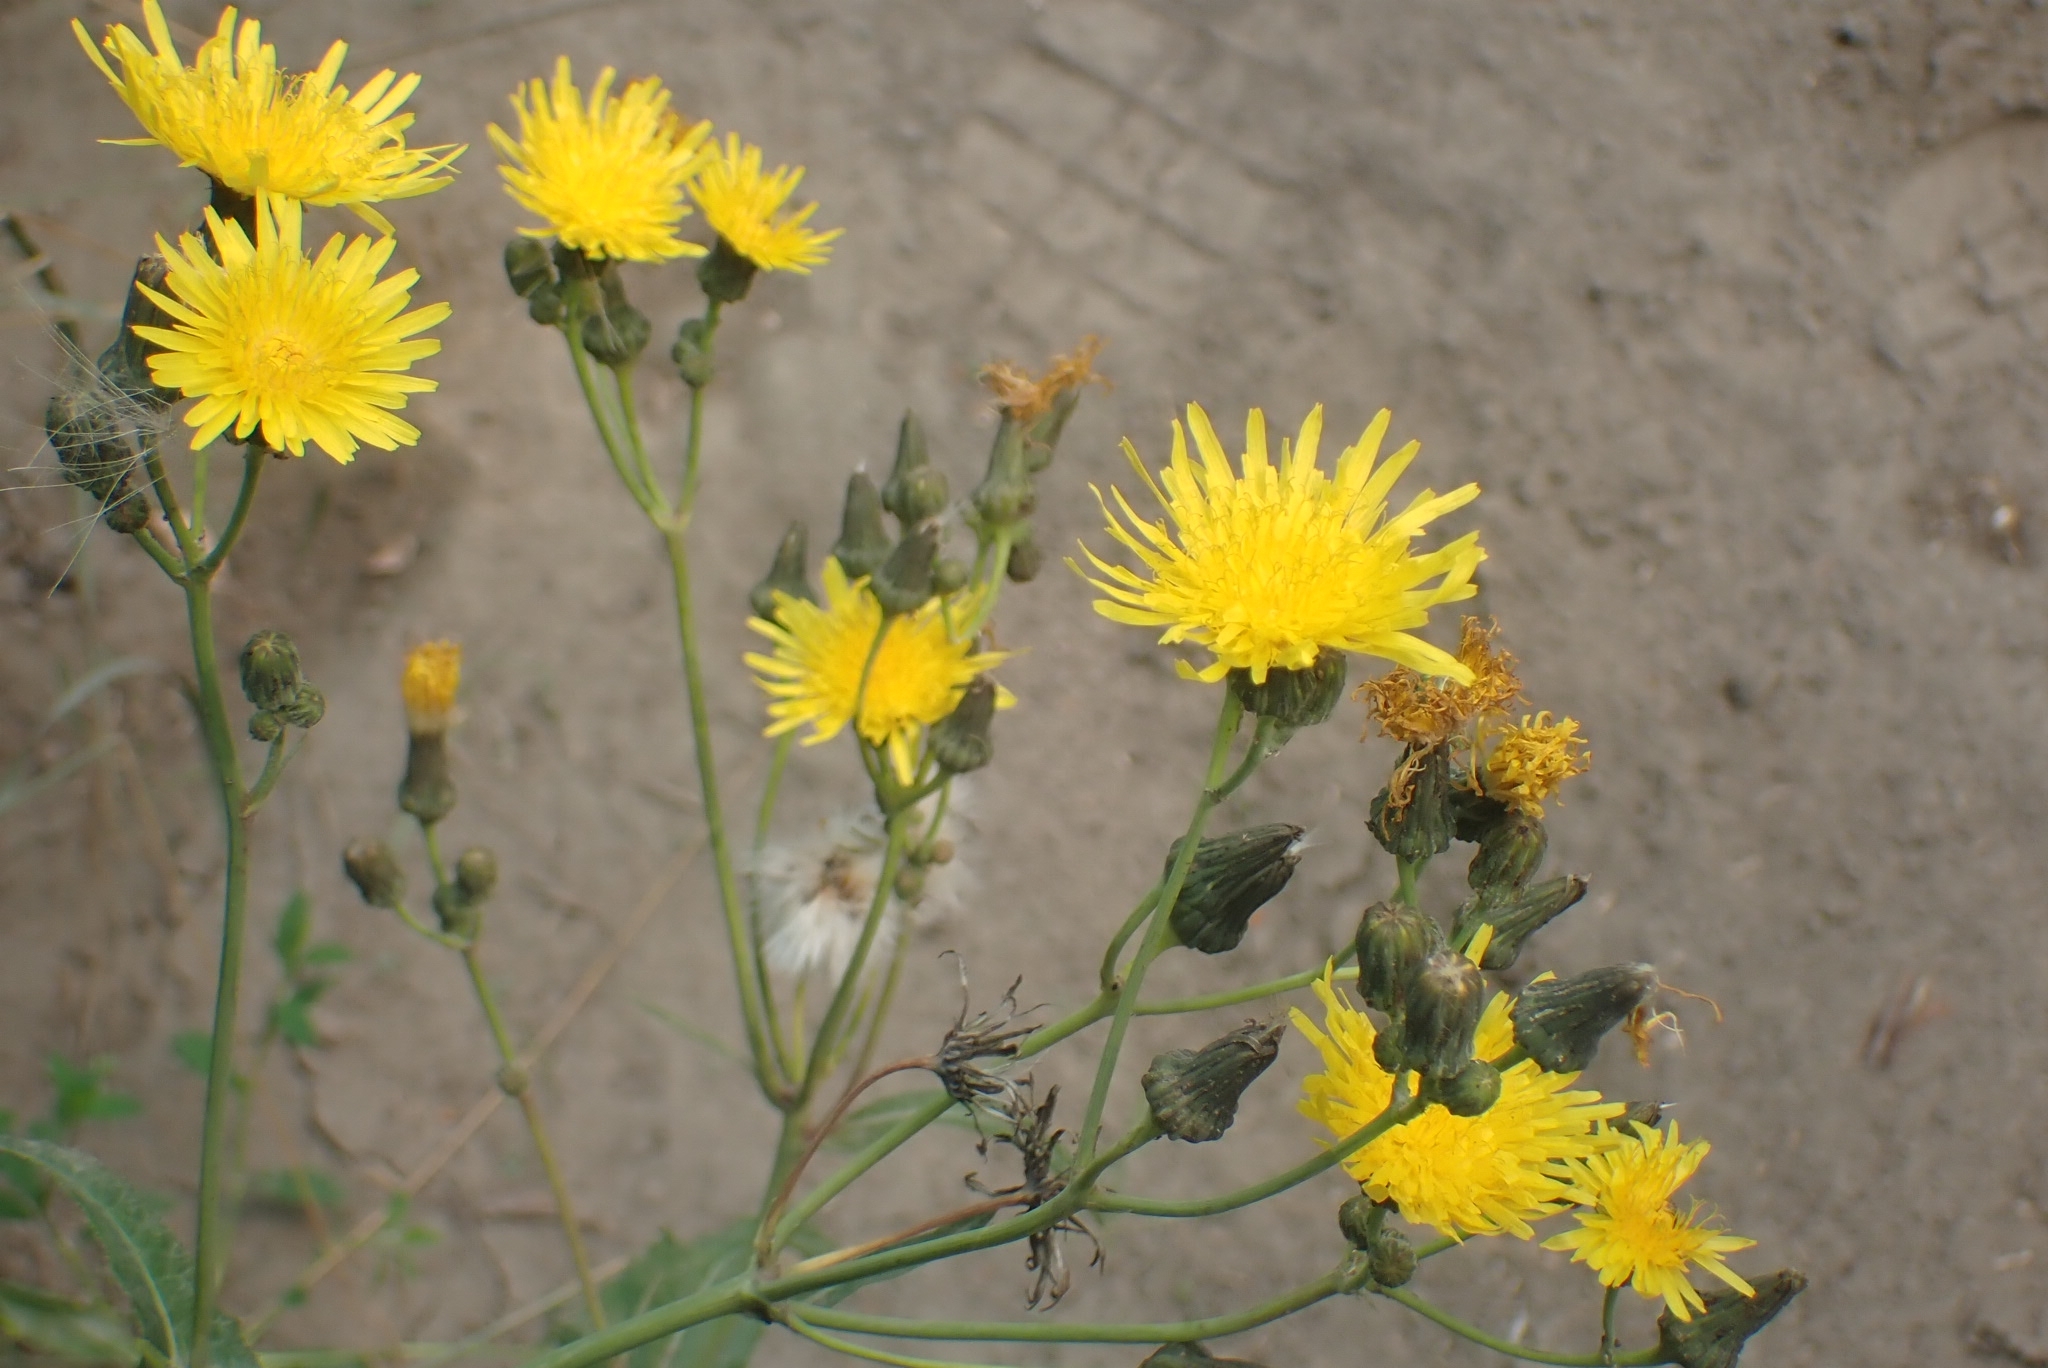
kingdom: Plantae
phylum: Tracheophyta
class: Magnoliopsida
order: Asterales
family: Asteraceae
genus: Sonchus
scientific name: Sonchus arvensis
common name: Perennial sow-thistle
